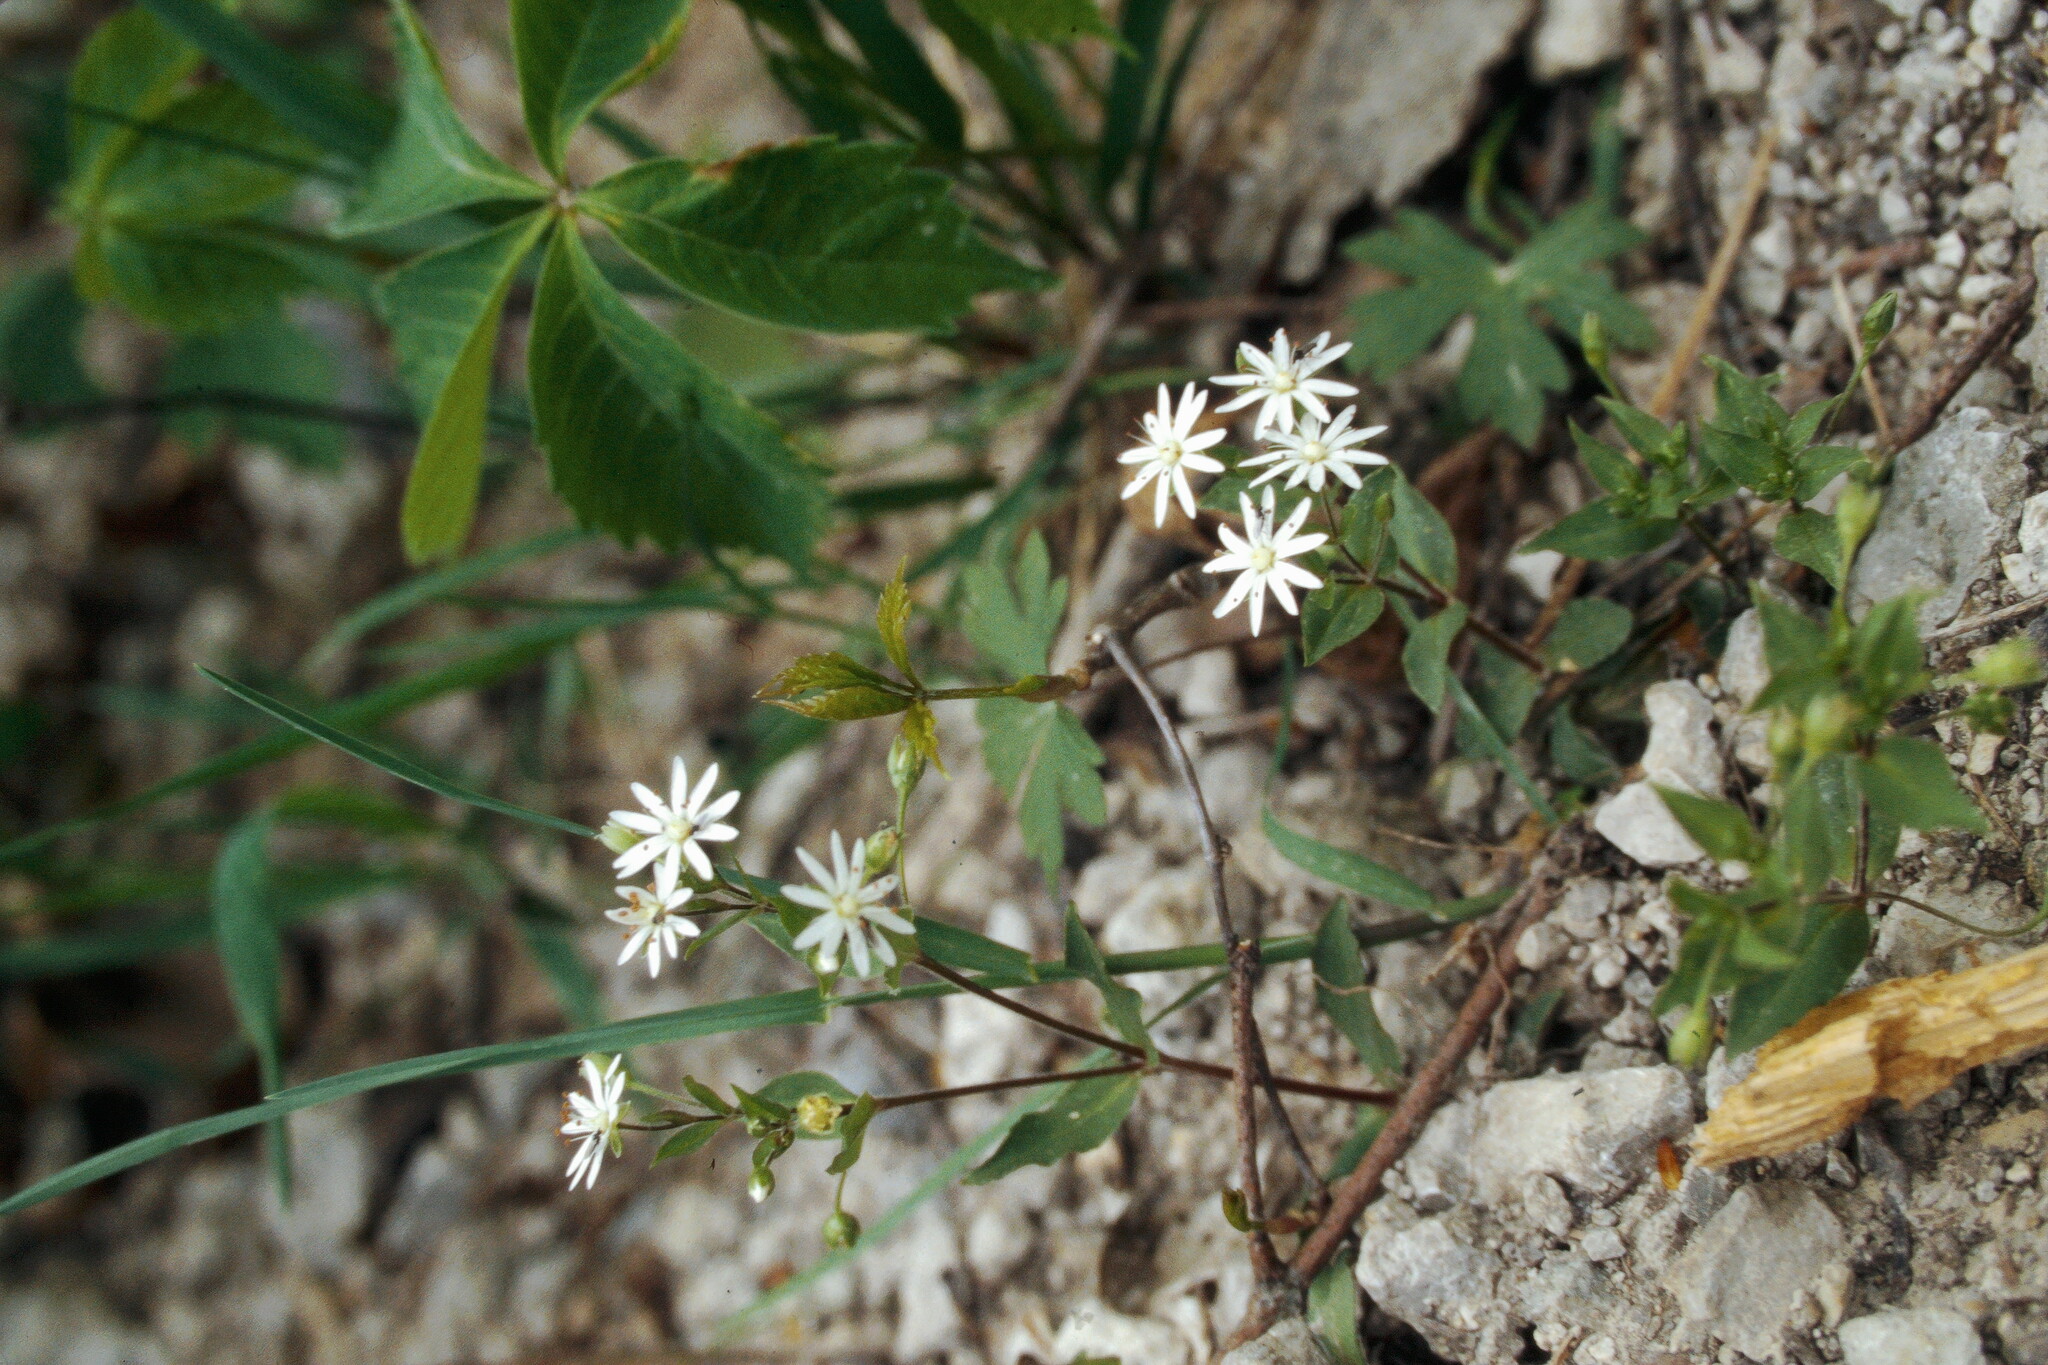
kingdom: Plantae
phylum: Tracheophyta
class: Magnoliopsida
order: Caryophyllales
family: Caryophyllaceae
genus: Stellaria
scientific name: Stellaria graminea
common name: Grass-like starwort
